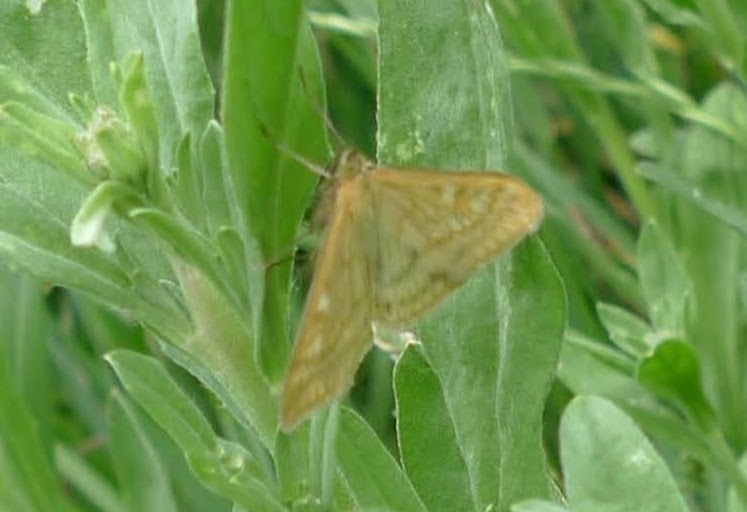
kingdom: Animalia
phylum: Arthropoda
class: Insecta
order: Lepidoptera
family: Crambidae
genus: Sitochroa
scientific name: Sitochroa verticalis
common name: Lesser pearl
